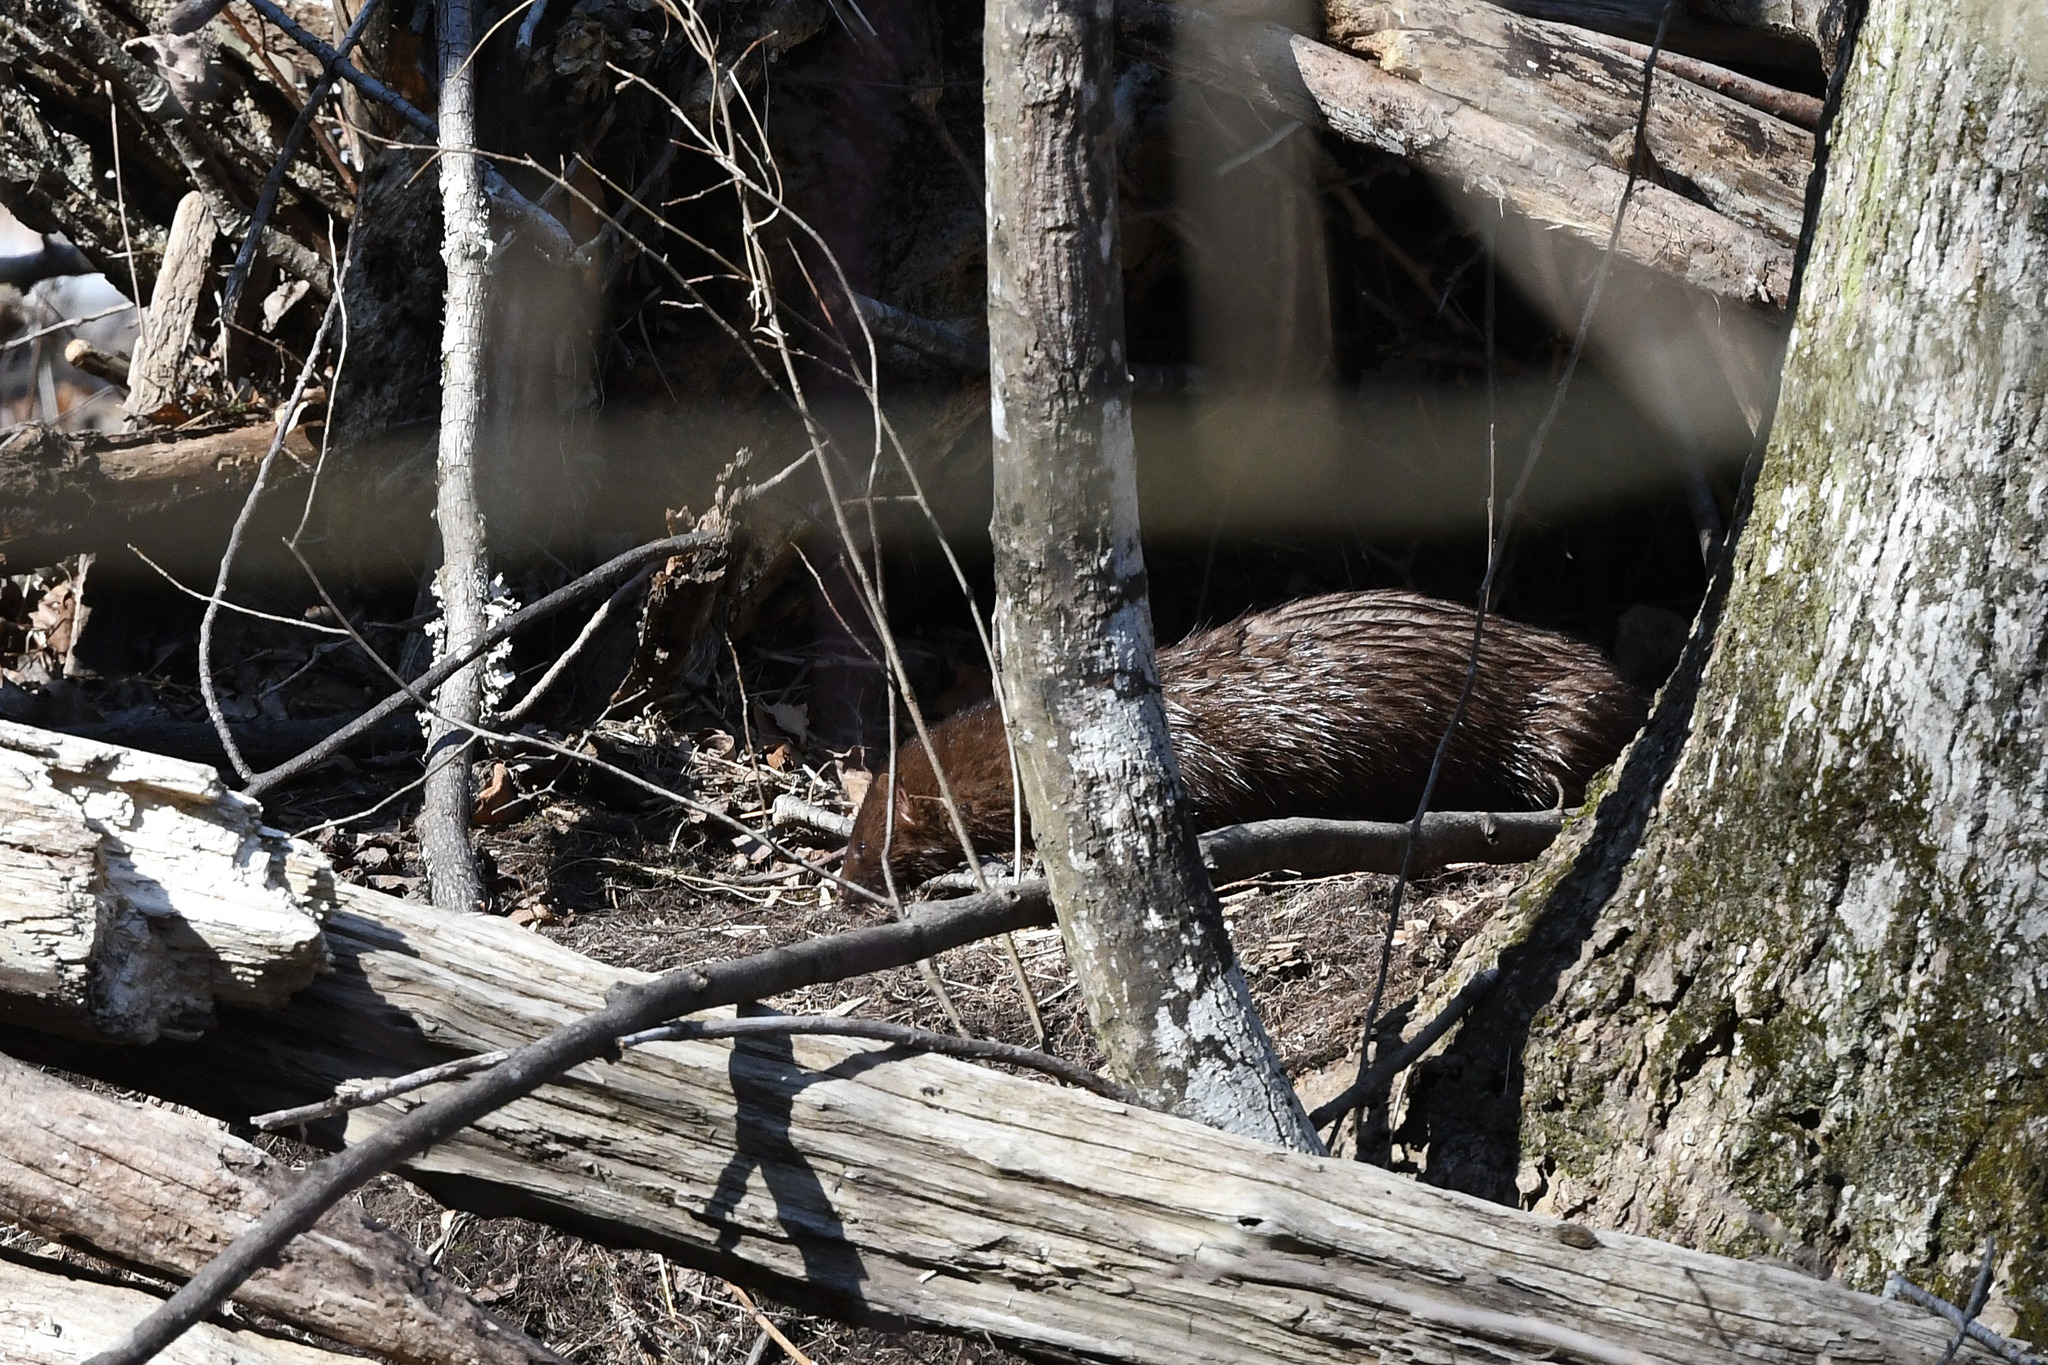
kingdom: Animalia
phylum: Chordata
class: Mammalia
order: Carnivora
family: Mustelidae
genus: Mustela
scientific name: Mustela
